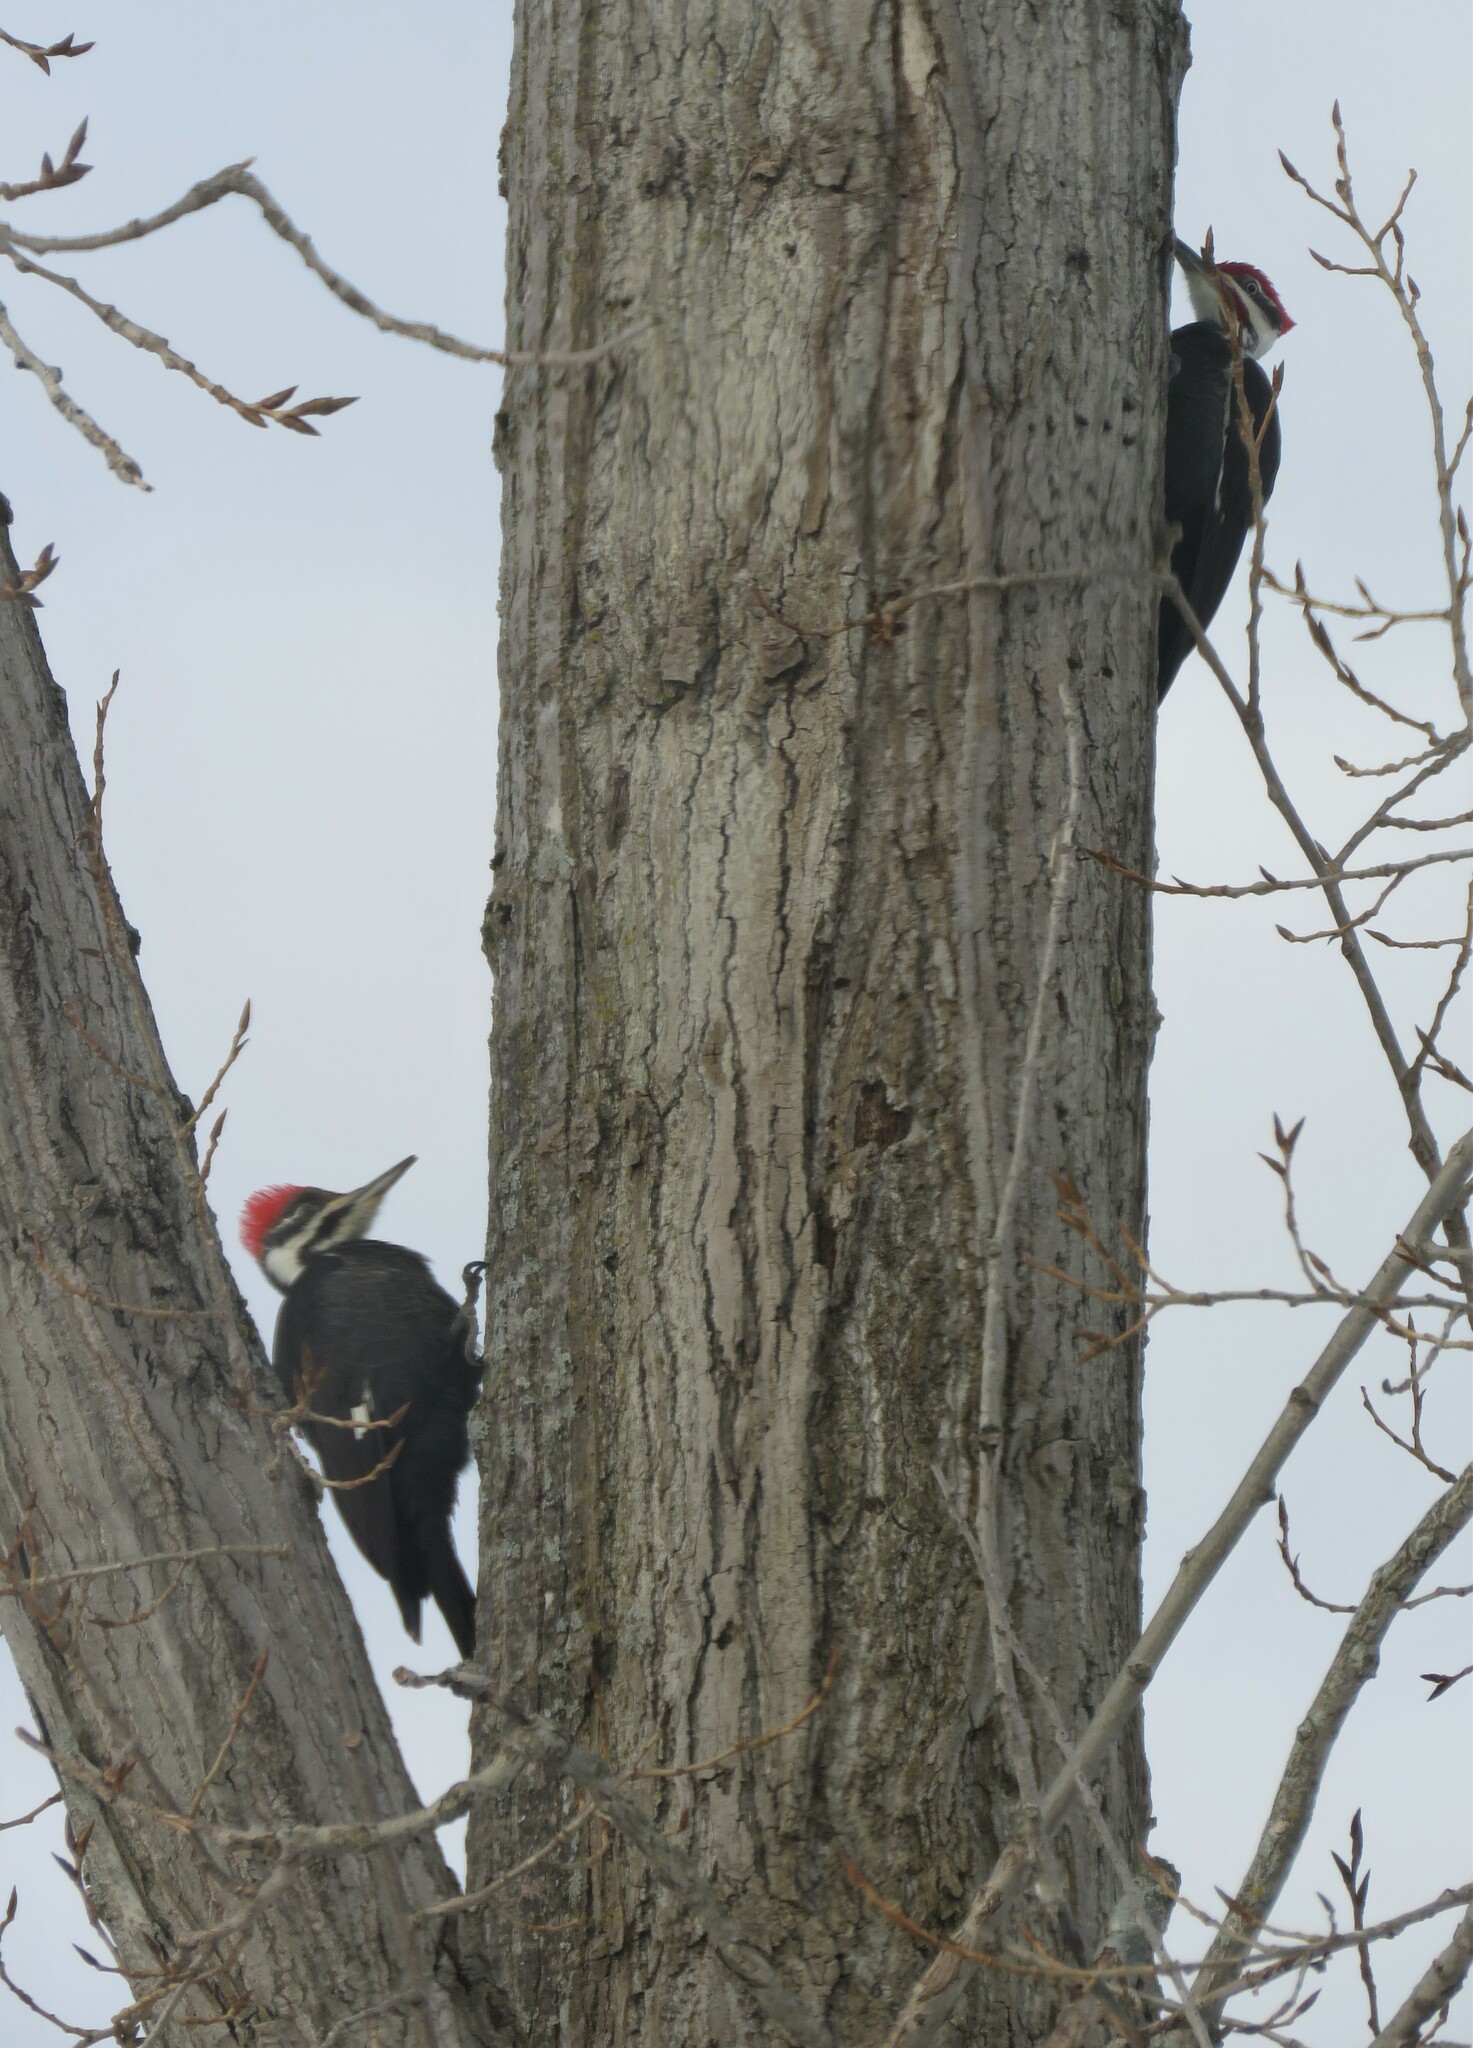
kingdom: Animalia
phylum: Chordata
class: Aves
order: Piciformes
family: Picidae
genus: Dryocopus
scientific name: Dryocopus pileatus
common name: Pileated woodpecker
